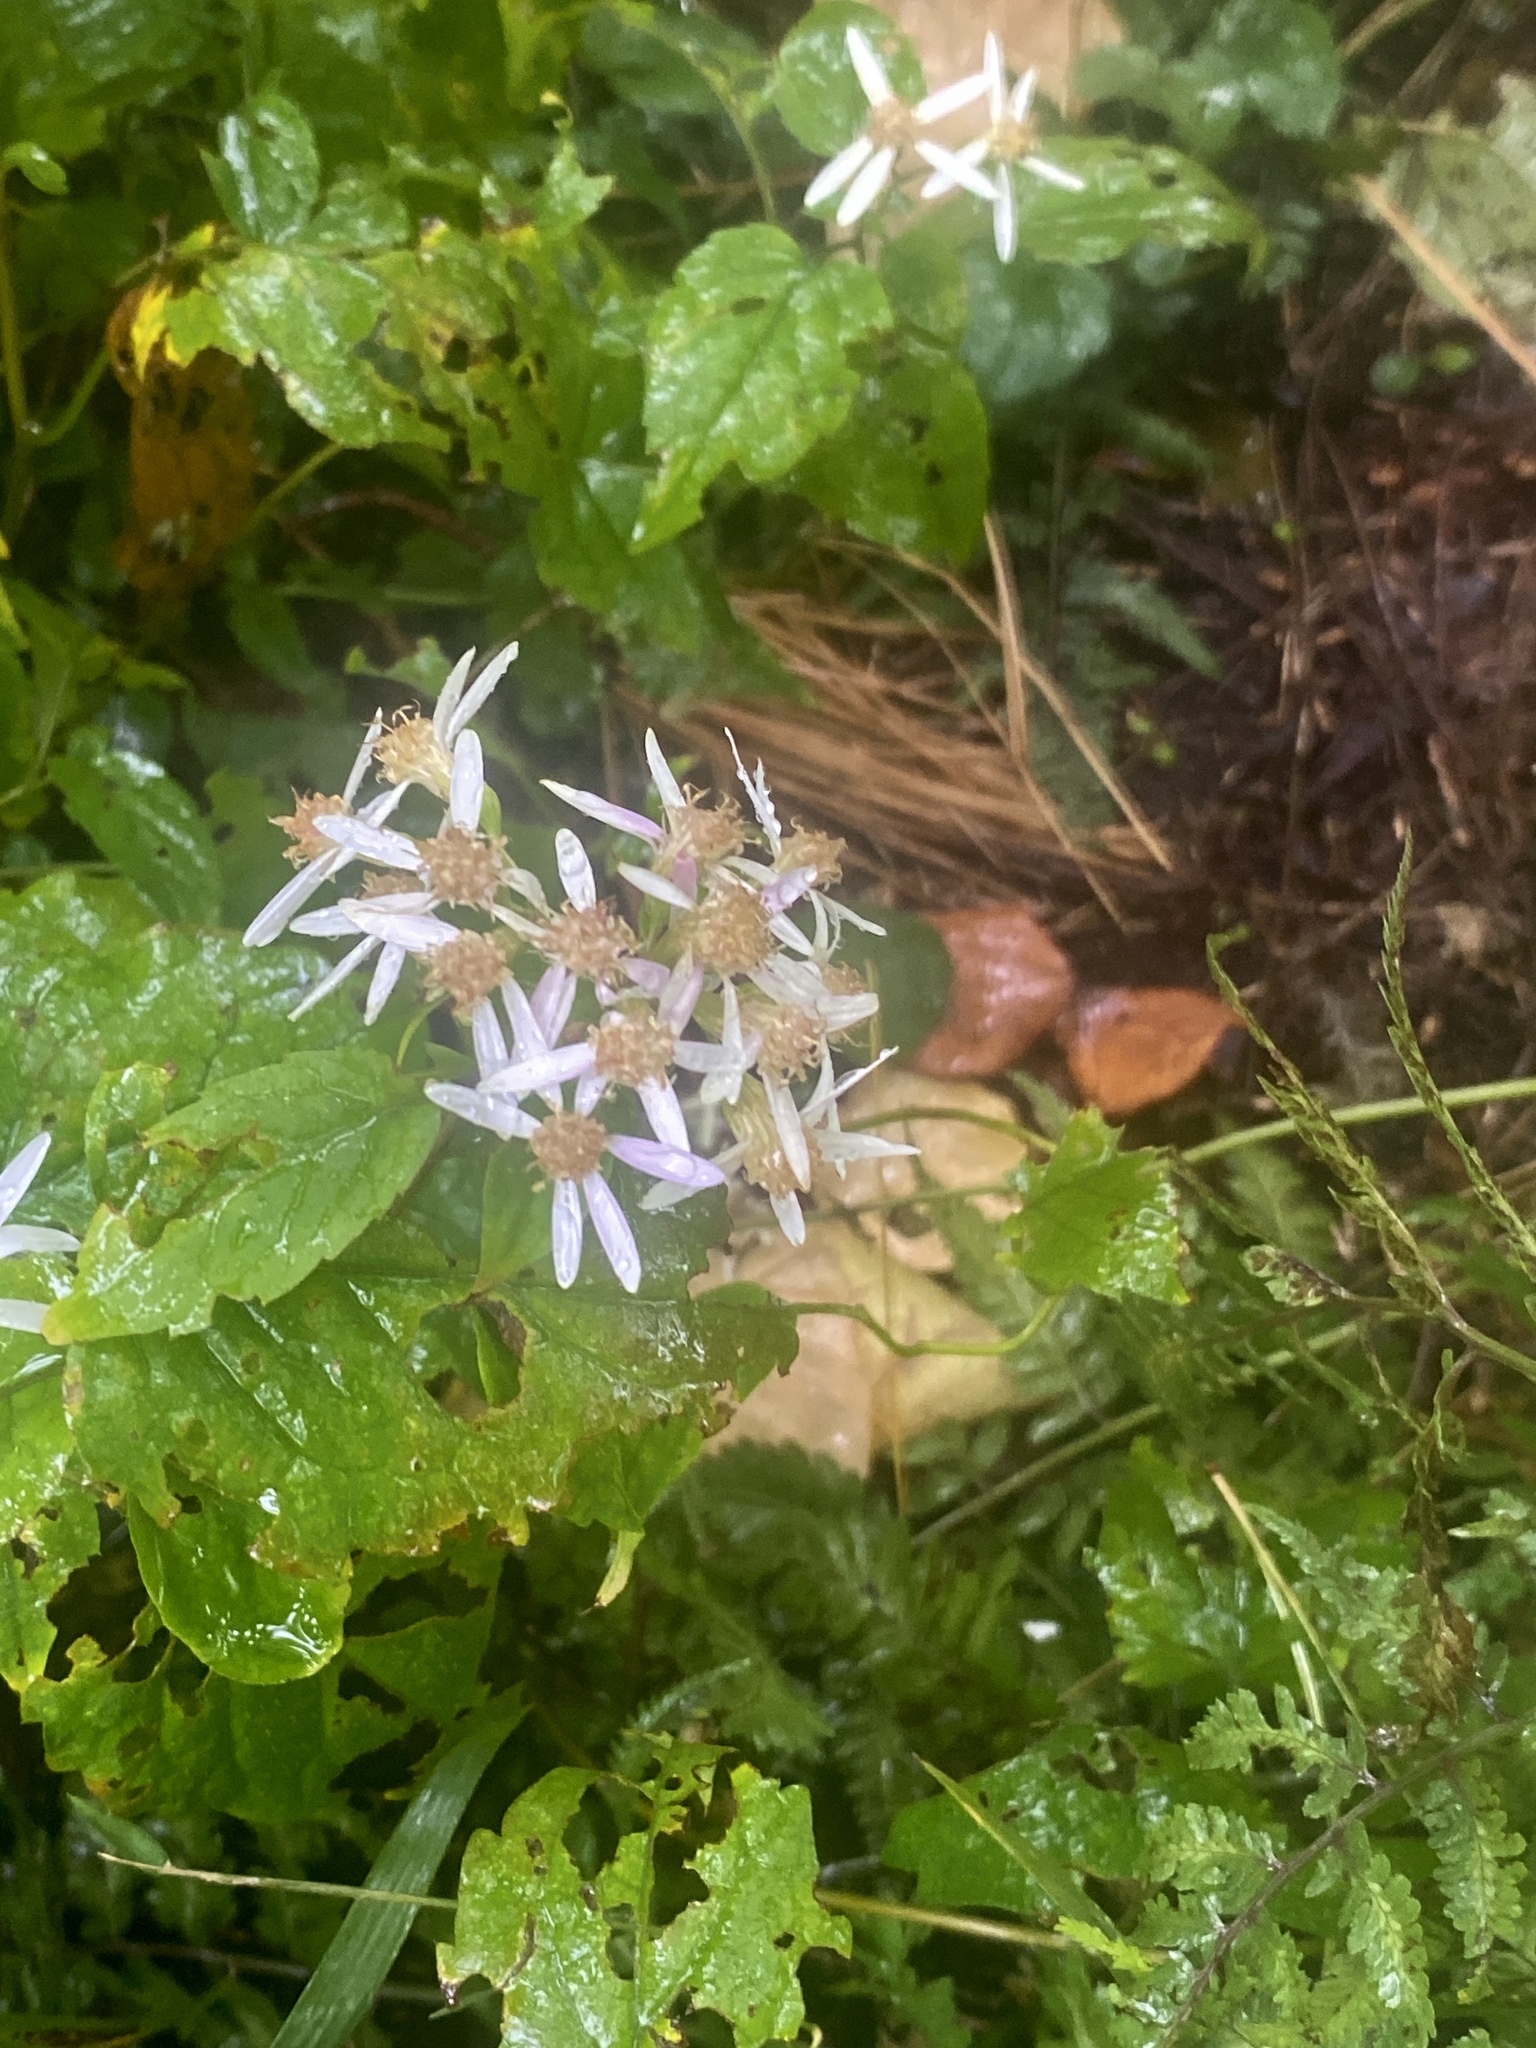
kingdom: Plantae
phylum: Tracheophyta
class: Magnoliopsida
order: Asterales
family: Asteraceae
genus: Eurybia
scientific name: Eurybia divaricata
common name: White wood aster
